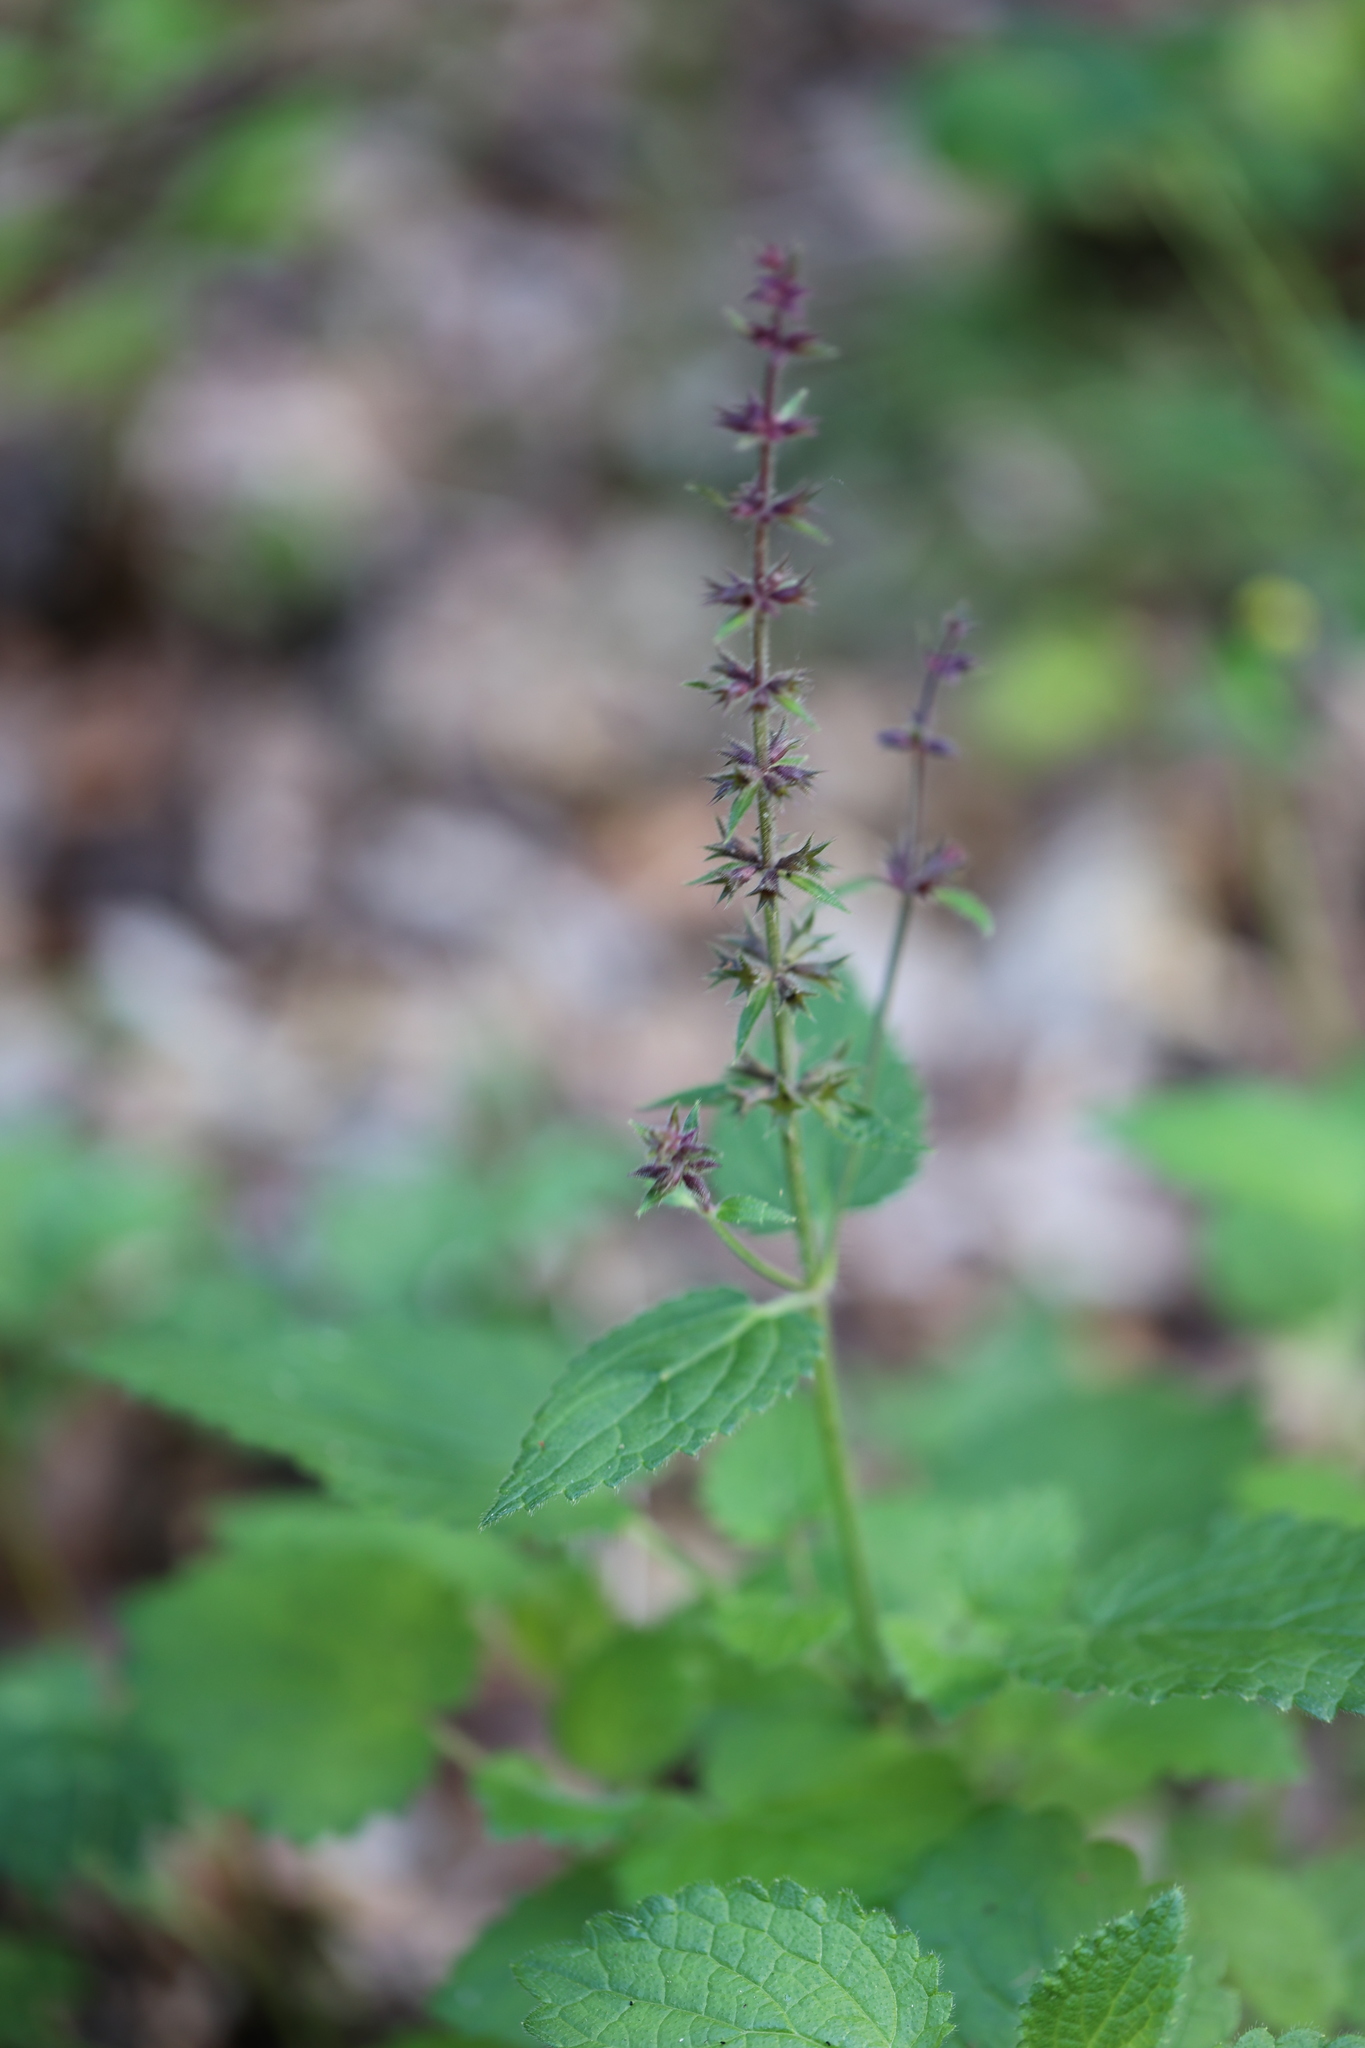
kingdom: Plantae
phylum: Tracheophyta
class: Magnoliopsida
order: Lamiales
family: Lamiaceae
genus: Stachys
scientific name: Stachys sylvatica
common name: Hedge woundwort
